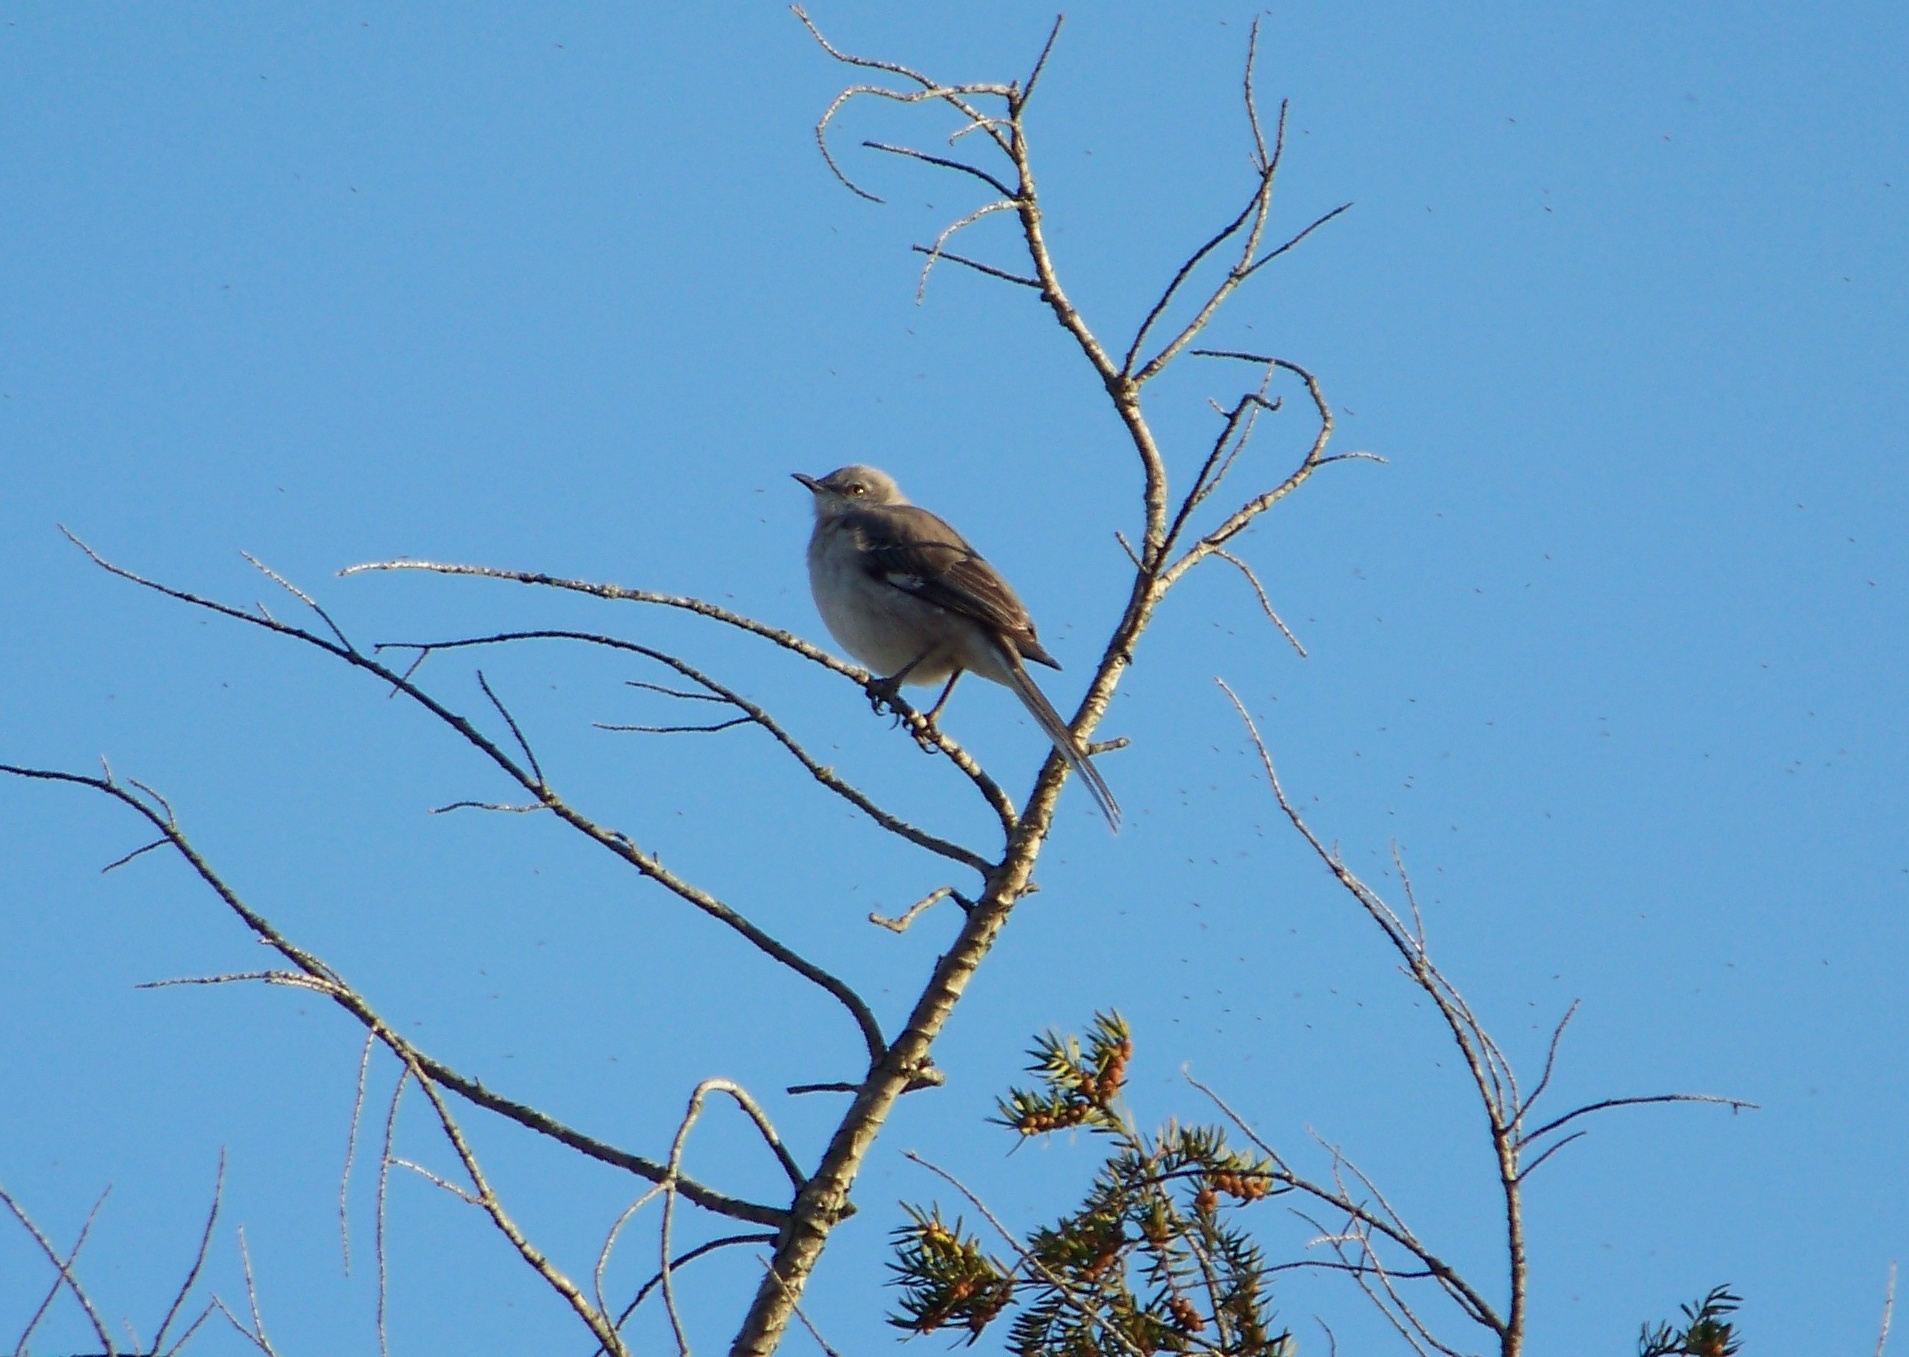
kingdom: Animalia
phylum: Chordata
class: Aves
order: Passeriformes
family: Mimidae
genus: Mimus
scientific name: Mimus polyglottos
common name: Northern mockingbird
